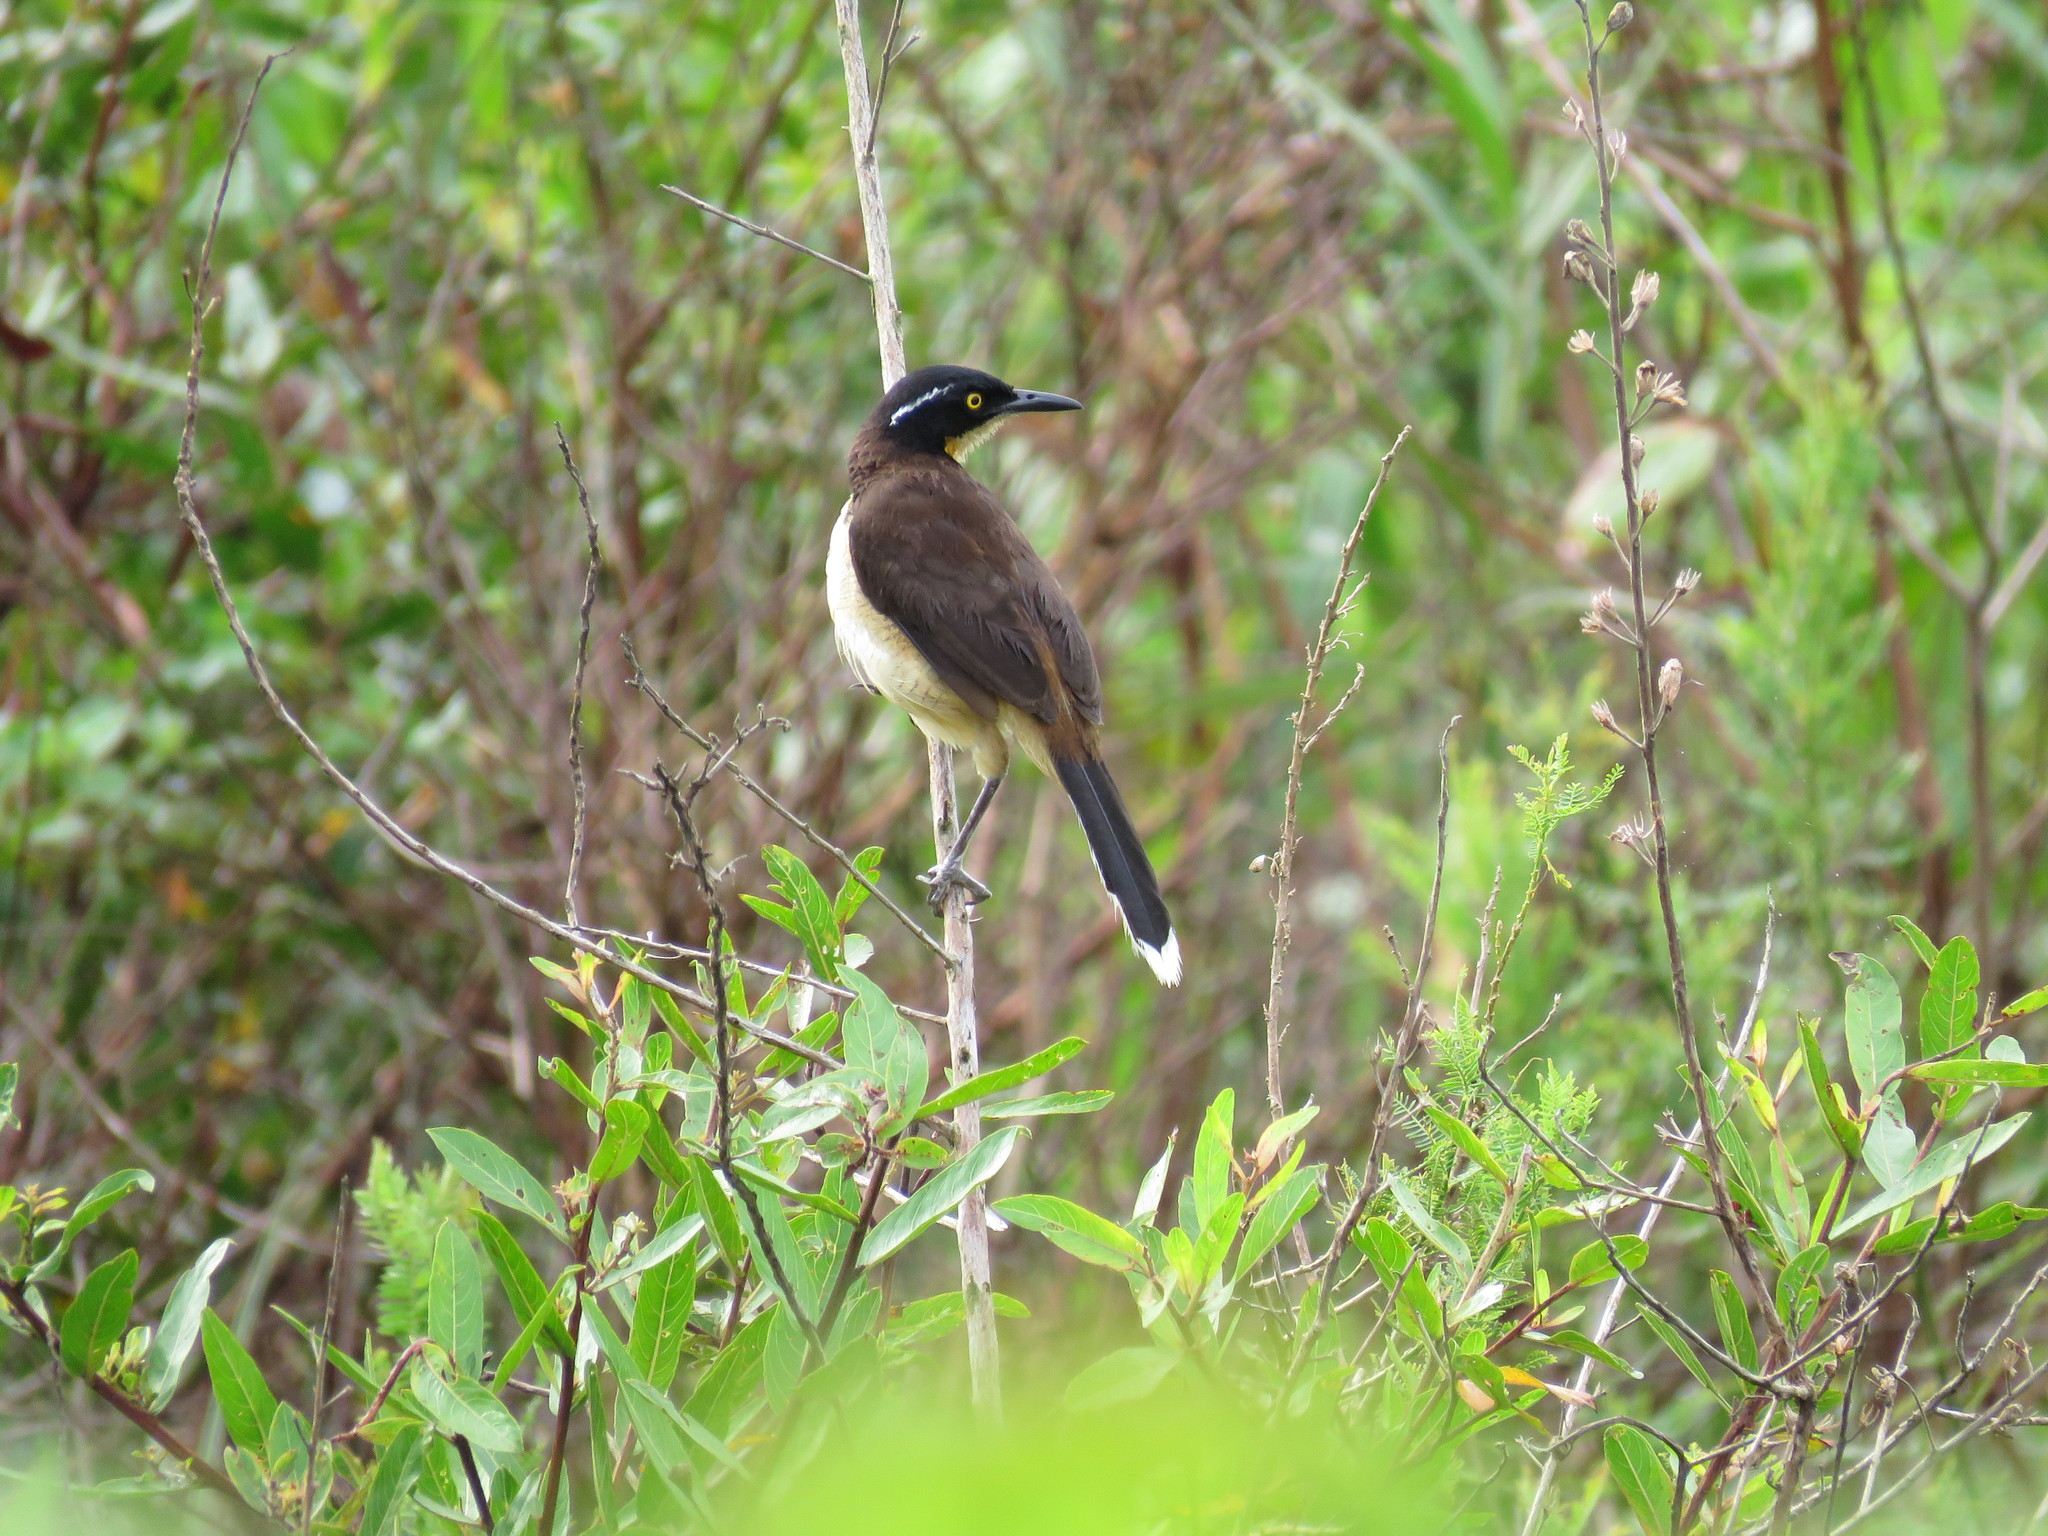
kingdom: Animalia
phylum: Chordata
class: Aves
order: Passeriformes
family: Donacobiidae
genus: Donacobius
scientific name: Donacobius atricapilla
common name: Black-capped donacobius
